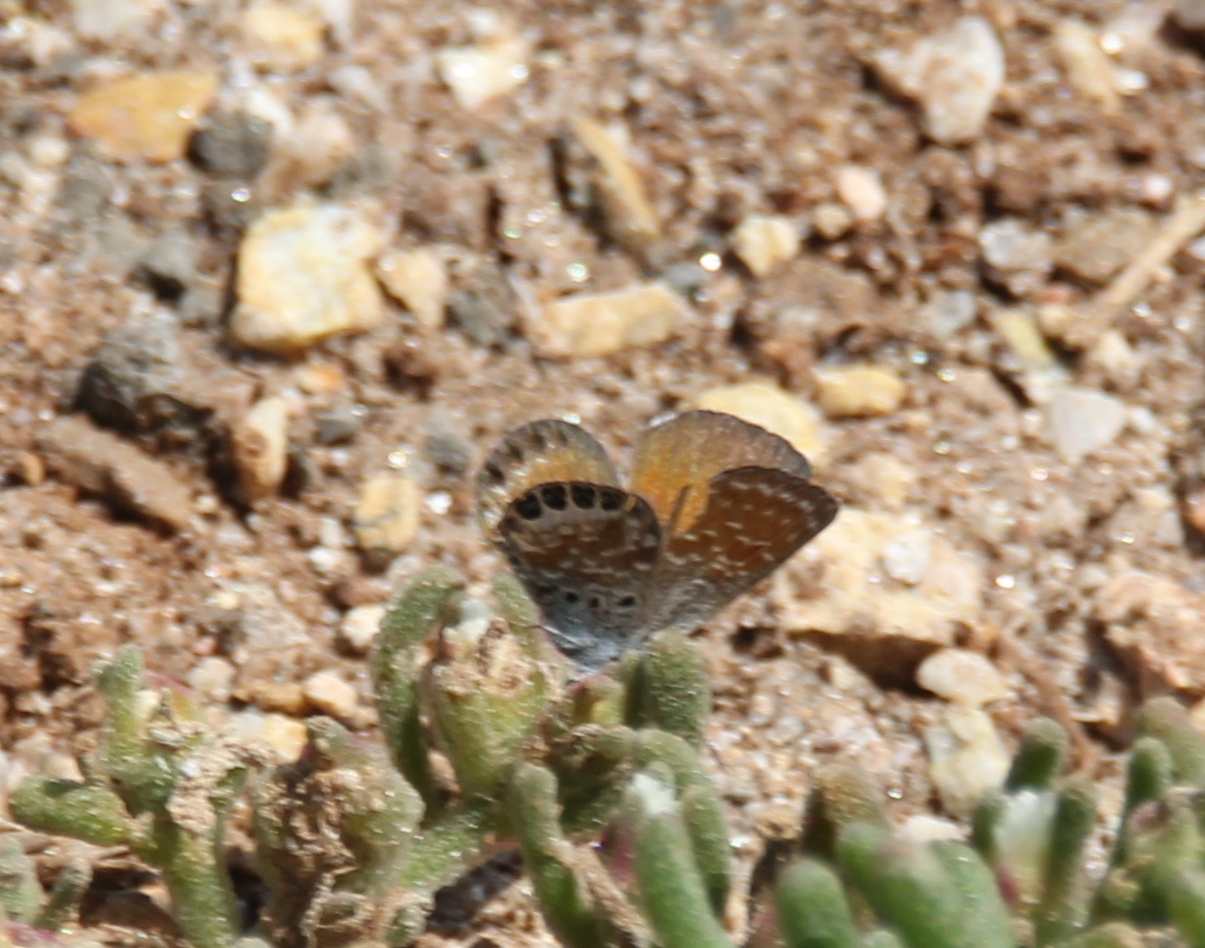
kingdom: Animalia
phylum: Arthropoda
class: Insecta
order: Lepidoptera
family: Lycaenidae
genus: Brephidium
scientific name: Brephidium exilis
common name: Pygmy blue
